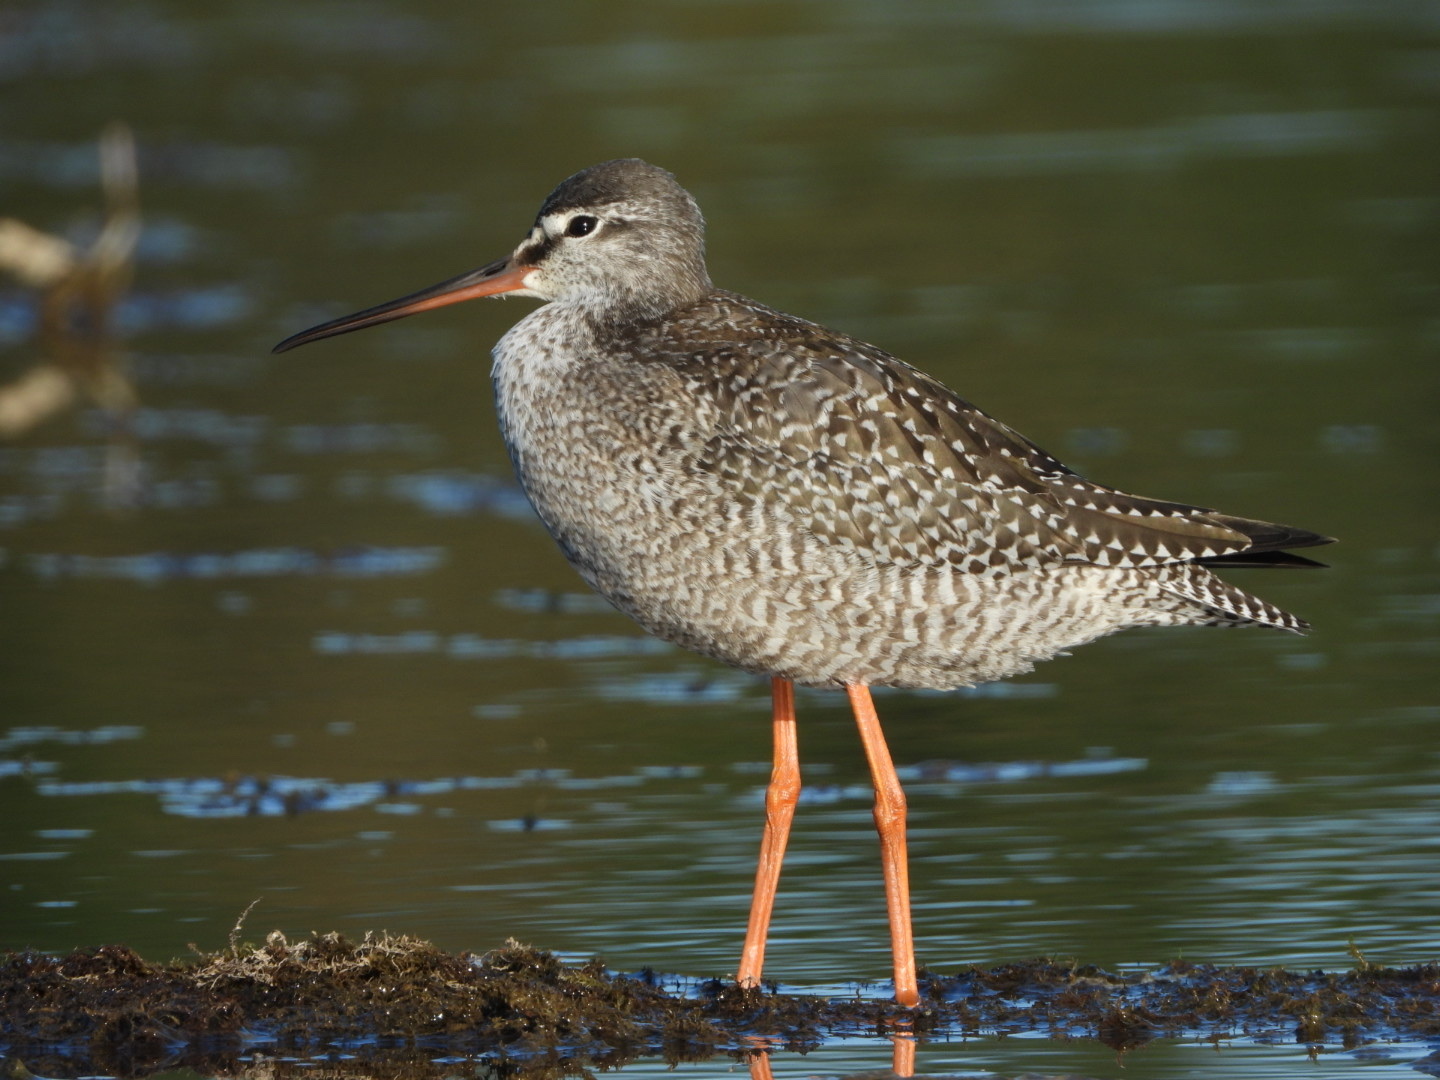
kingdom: Animalia
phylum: Chordata
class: Aves
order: Charadriiformes
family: Scolopacidae
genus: Tringa
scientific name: Tringa erythropus
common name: Spotted redshank
